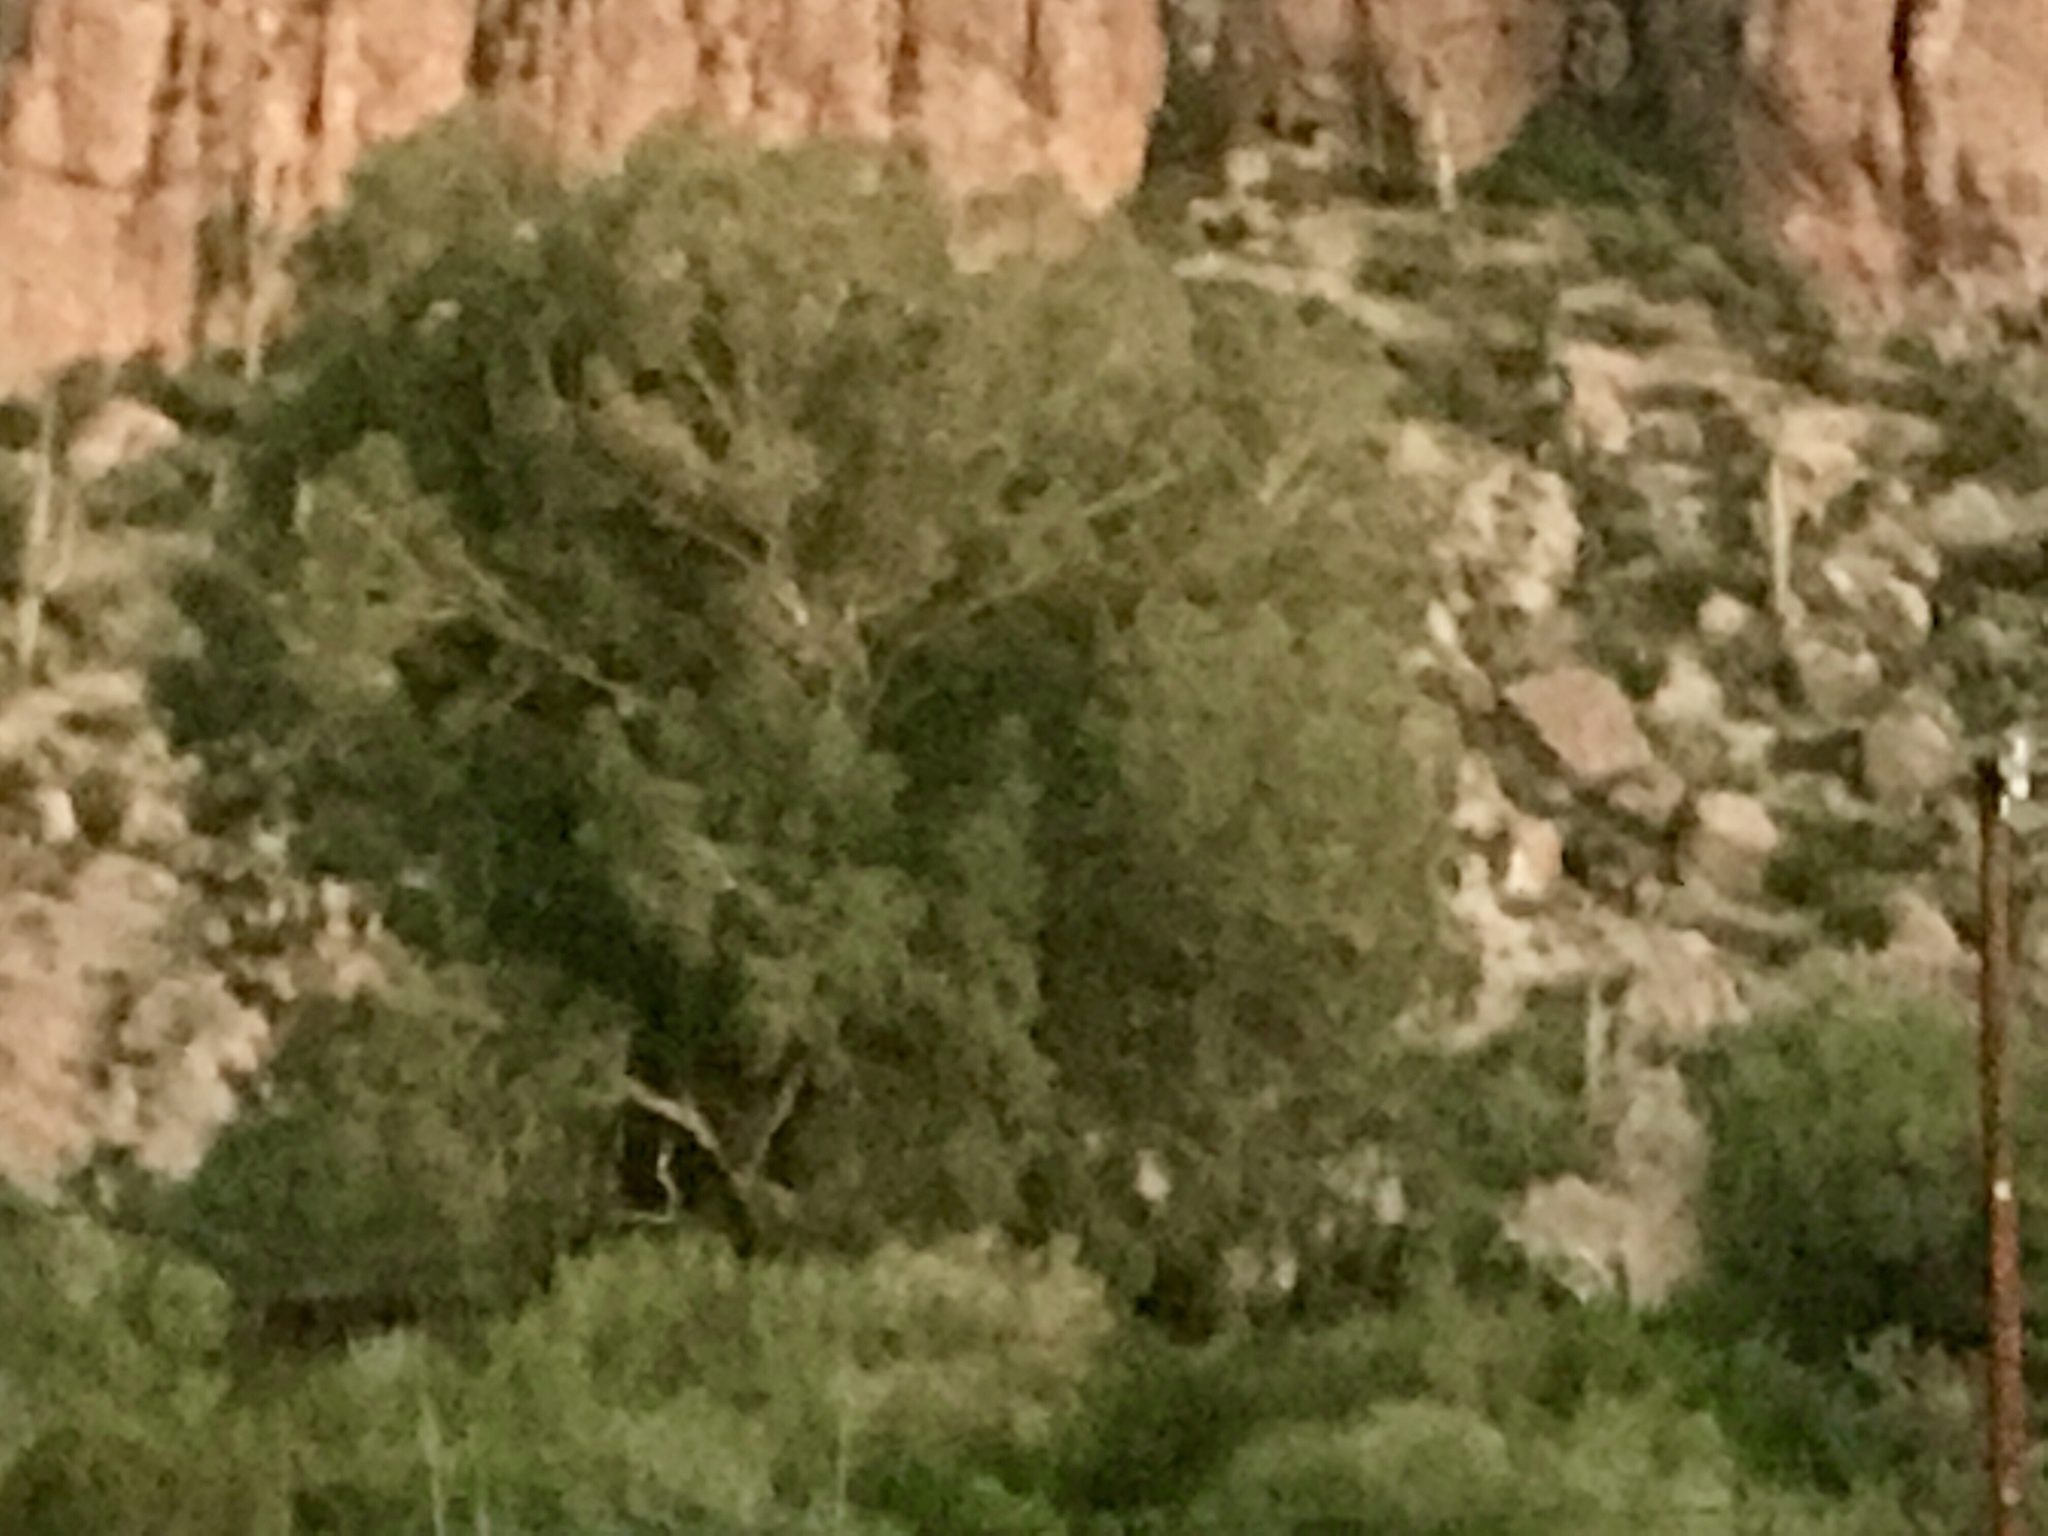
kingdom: Plantae
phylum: Tracheophyta
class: Magnoliopsida
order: Proteales
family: Platanaceae
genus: Platanus
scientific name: Platanus wrightii
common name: Arizona sycamore
